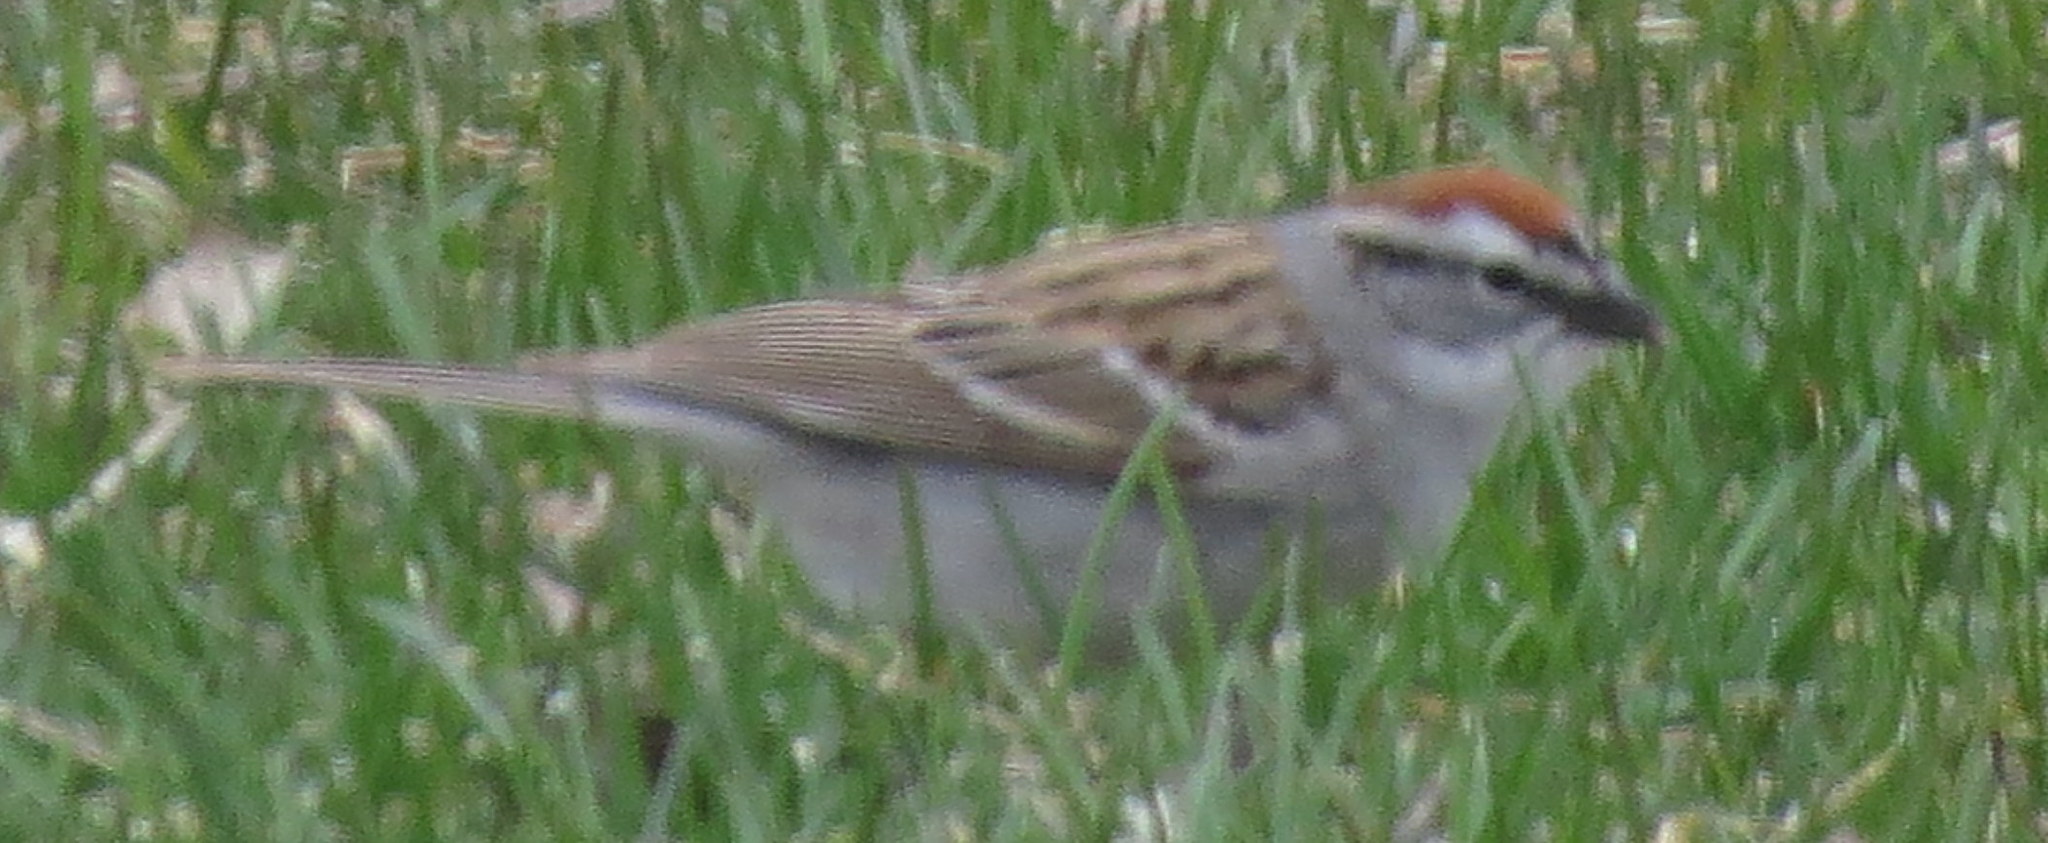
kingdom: Animalia
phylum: Chordata
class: Aves
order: Passeriformes
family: Passerellidae
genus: Spizella
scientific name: Spizella passerina
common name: Chipping sparrow
